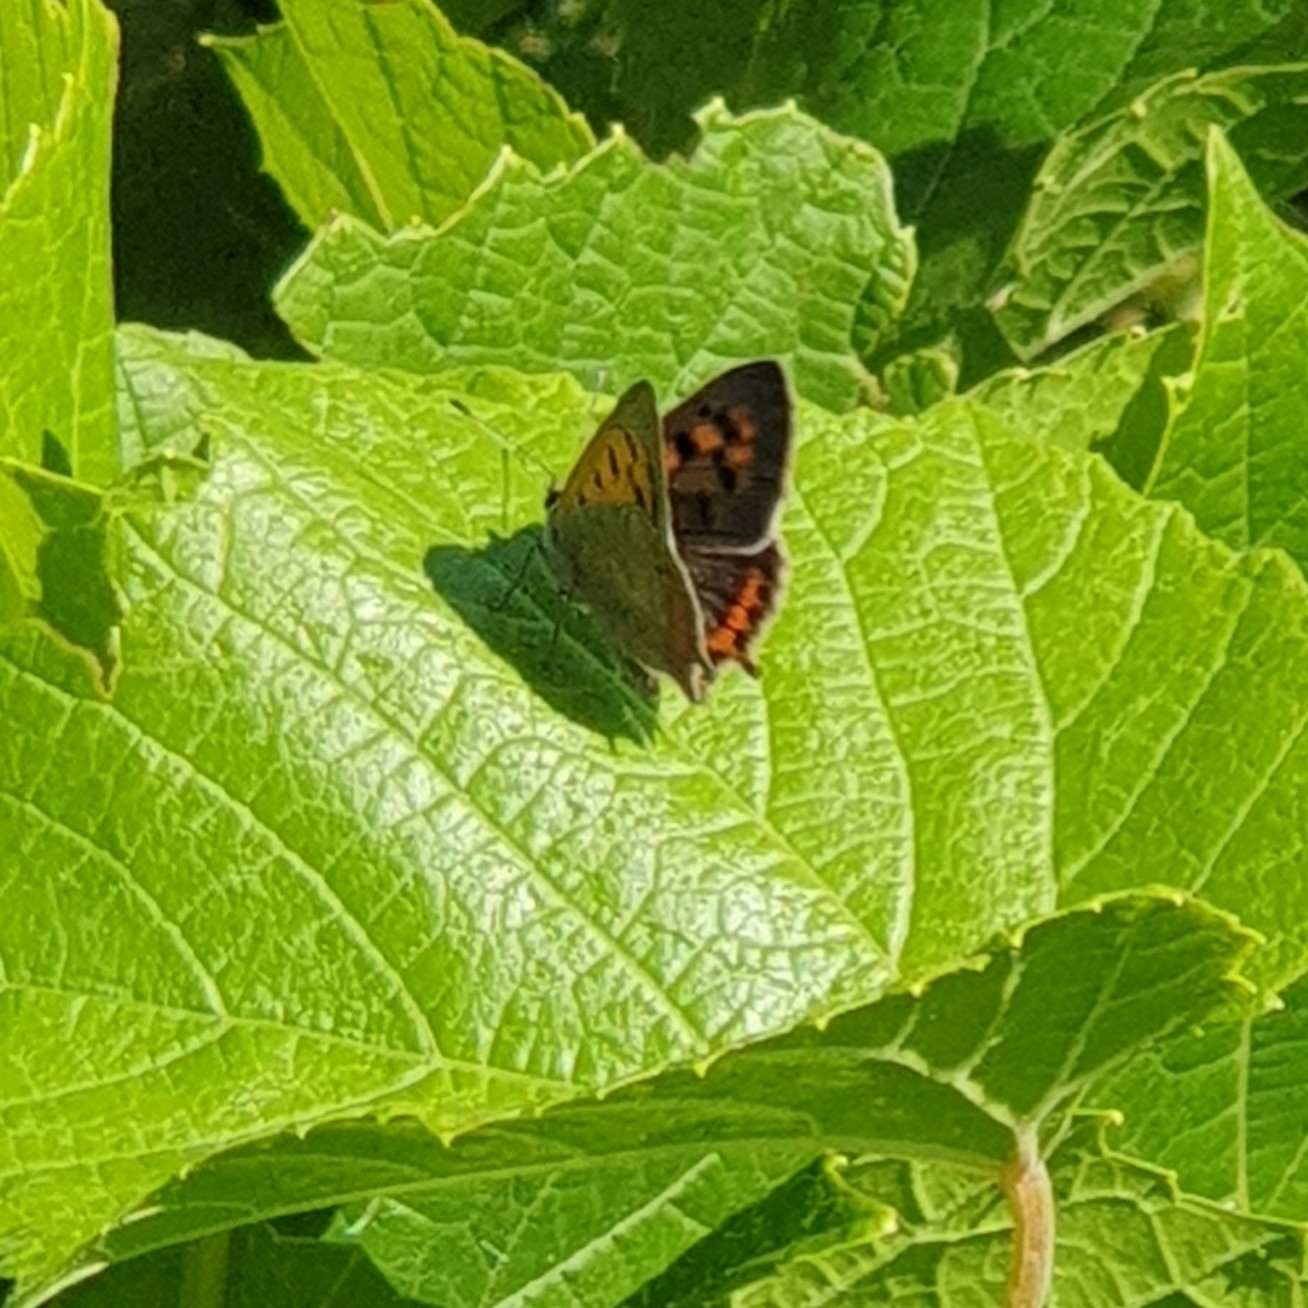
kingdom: Animalia
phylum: Arthropoda
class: Insecta
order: Lepidoptera
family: Lycaenidae
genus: Lycaena
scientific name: Lycaena phlaeas
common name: Small copper
